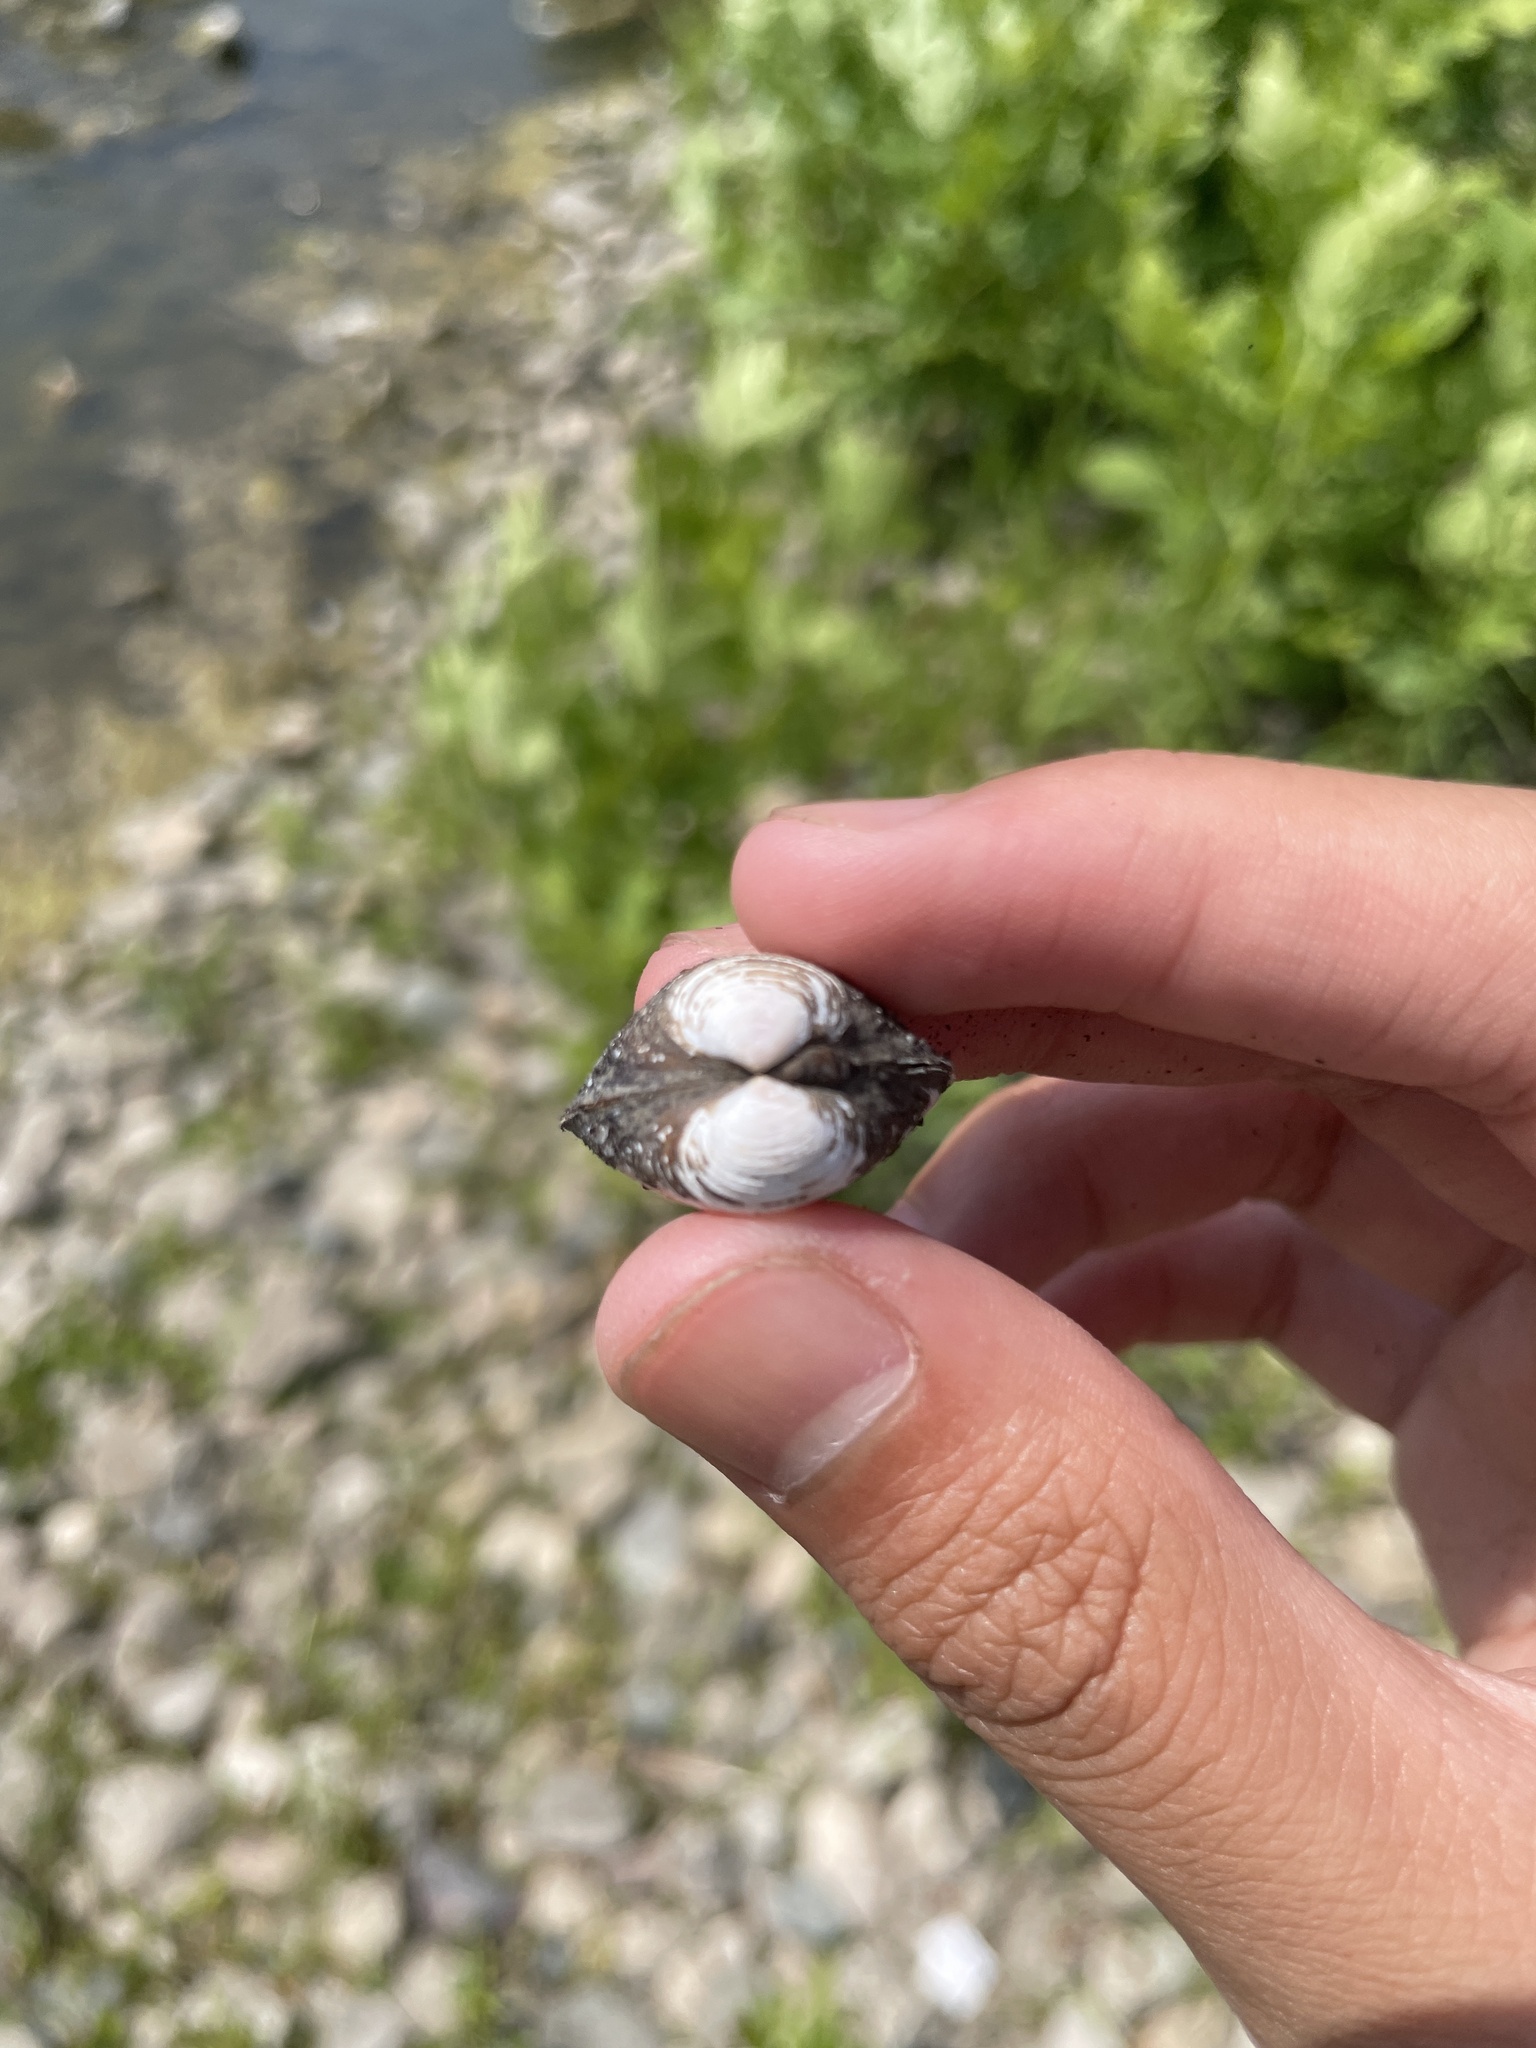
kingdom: Animalia
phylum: Mollusca
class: Bivalvia
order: Venerida
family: Cyrenidae
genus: Corbicula
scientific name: Corbicula fluminea
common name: Asian clam
